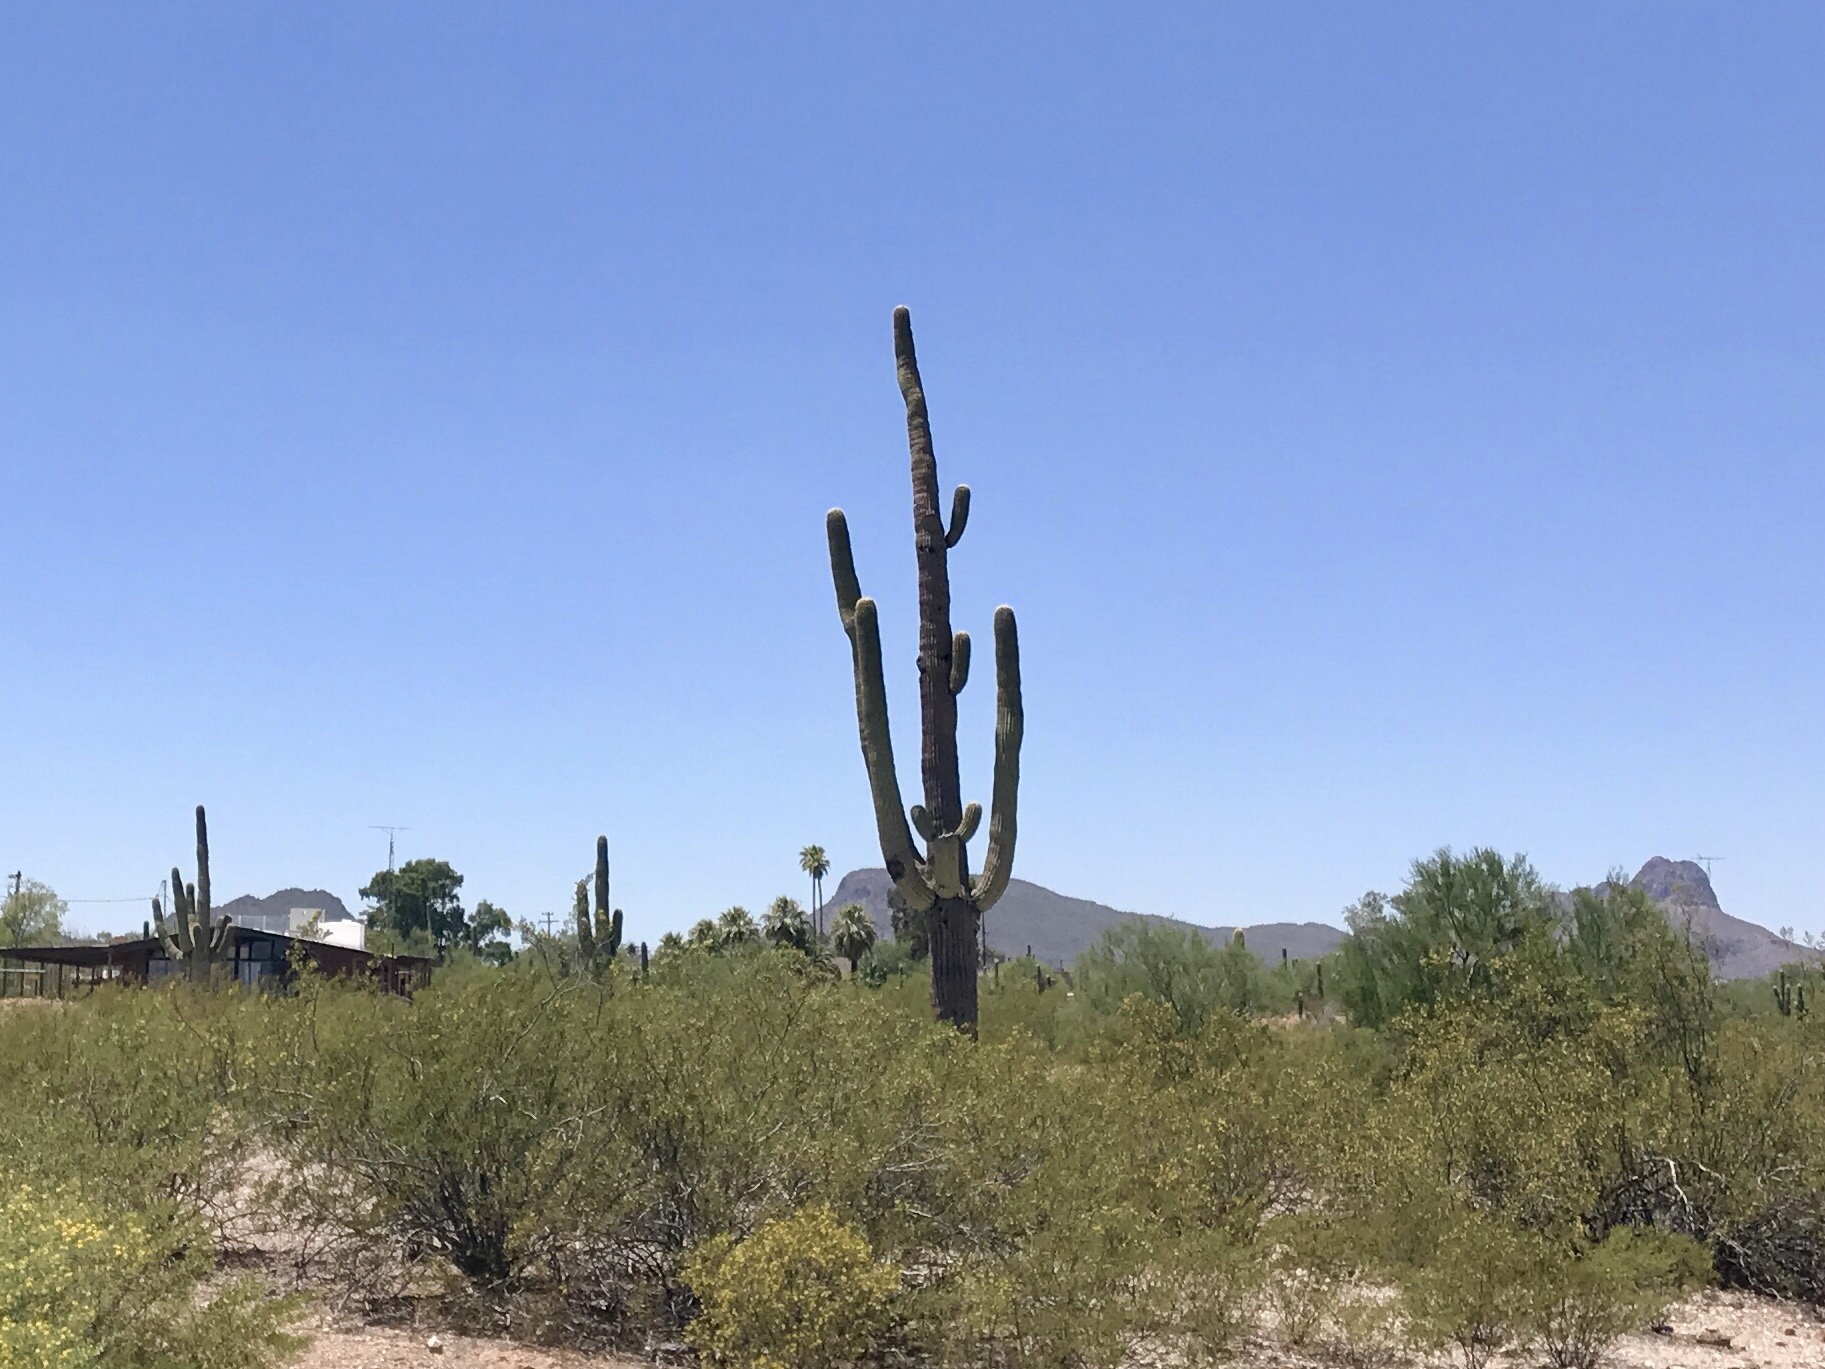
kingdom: Plantae
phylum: Tracheophyta
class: Magnoliopsida
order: Caryophyllales
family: Cactaceae
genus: Carnegiea
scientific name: Carnegiea gigantea
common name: Saguaro
